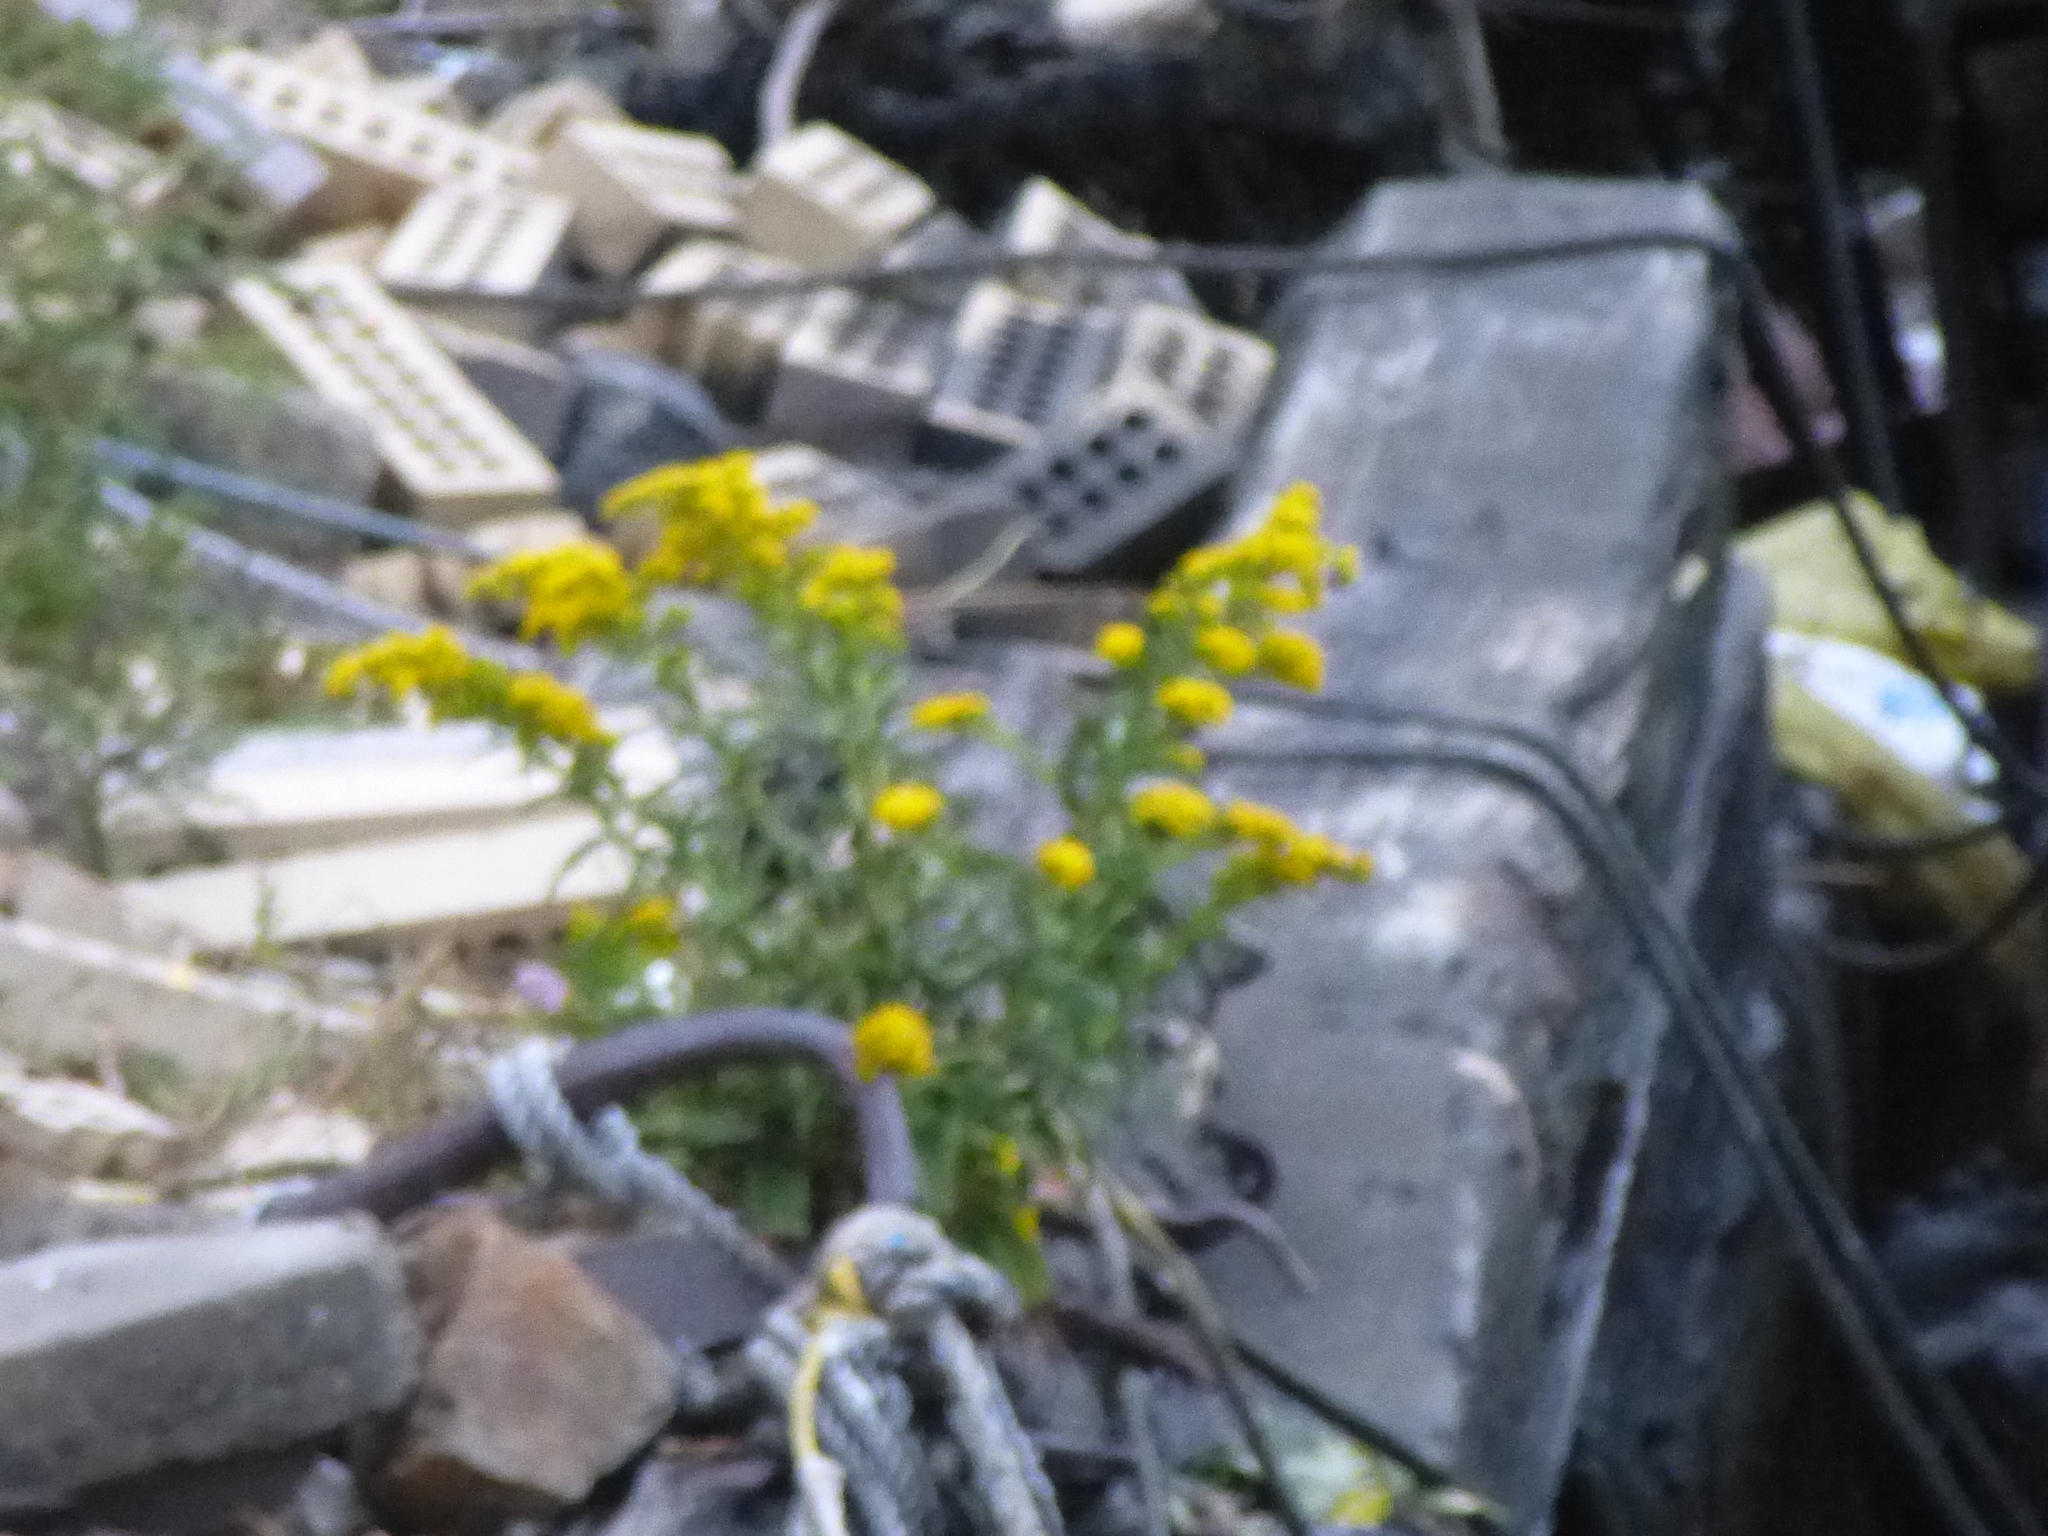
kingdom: Plantae
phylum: Tracheophyta
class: Magnoliopsida
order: Asterales
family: Asteraceae
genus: Solidago
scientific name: Solidago sempervirens
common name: Salt-marsh goldenrod
